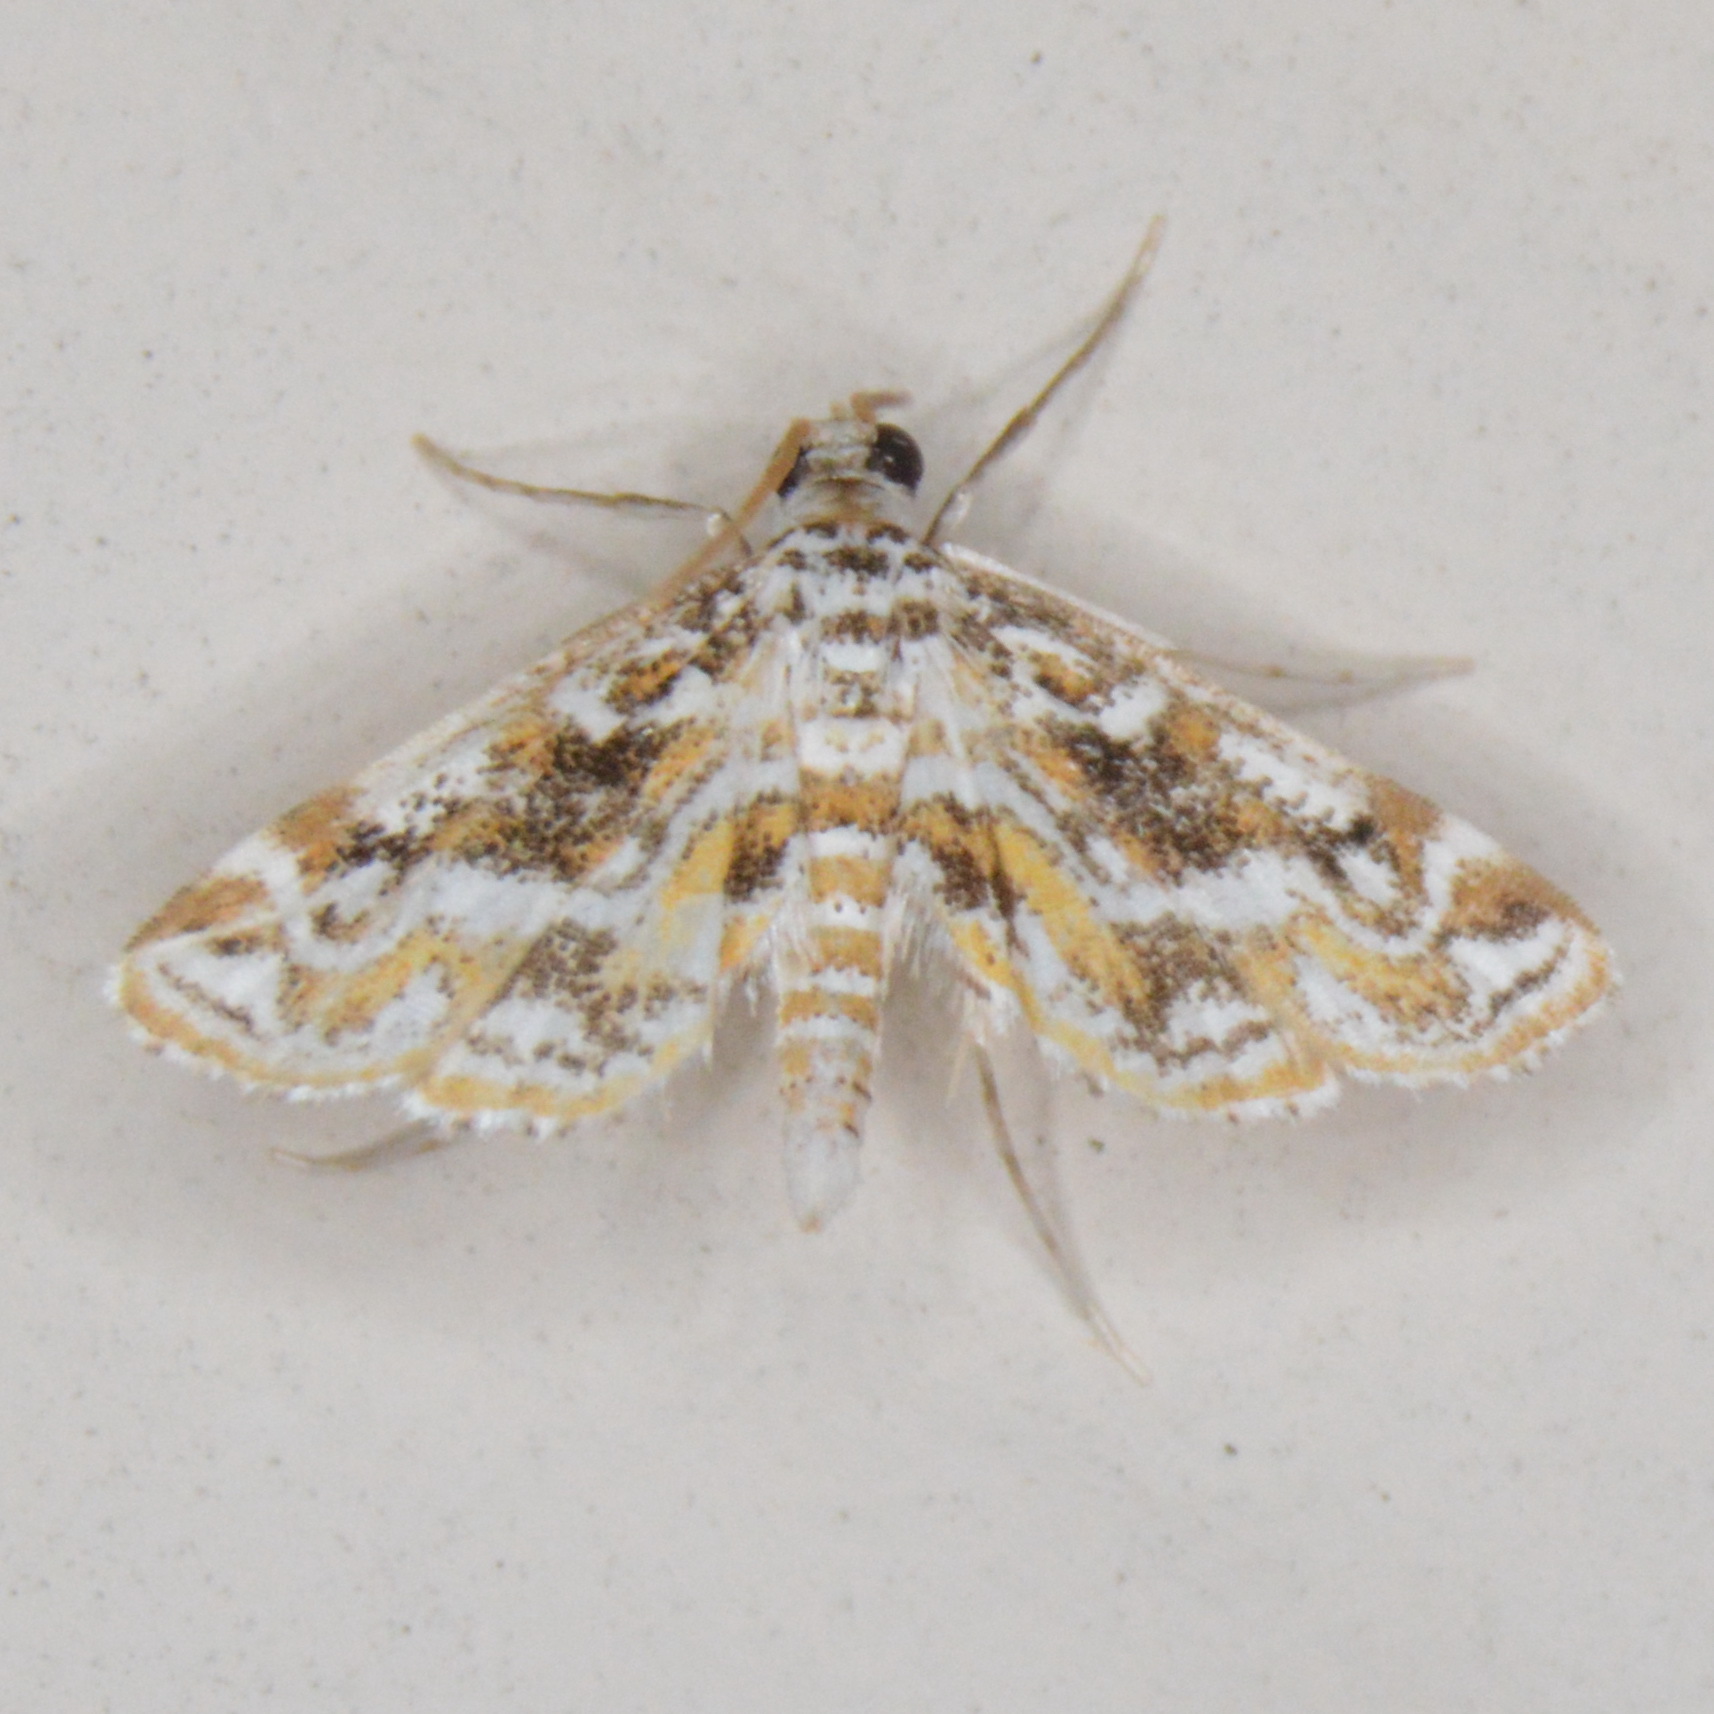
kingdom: Animalia
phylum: Arthropoda
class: Insecta
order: Lepidoptera
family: Crambidae
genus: Parapoynx
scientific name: Parapoynx diminutalis
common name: Hydrilla leafcutter
